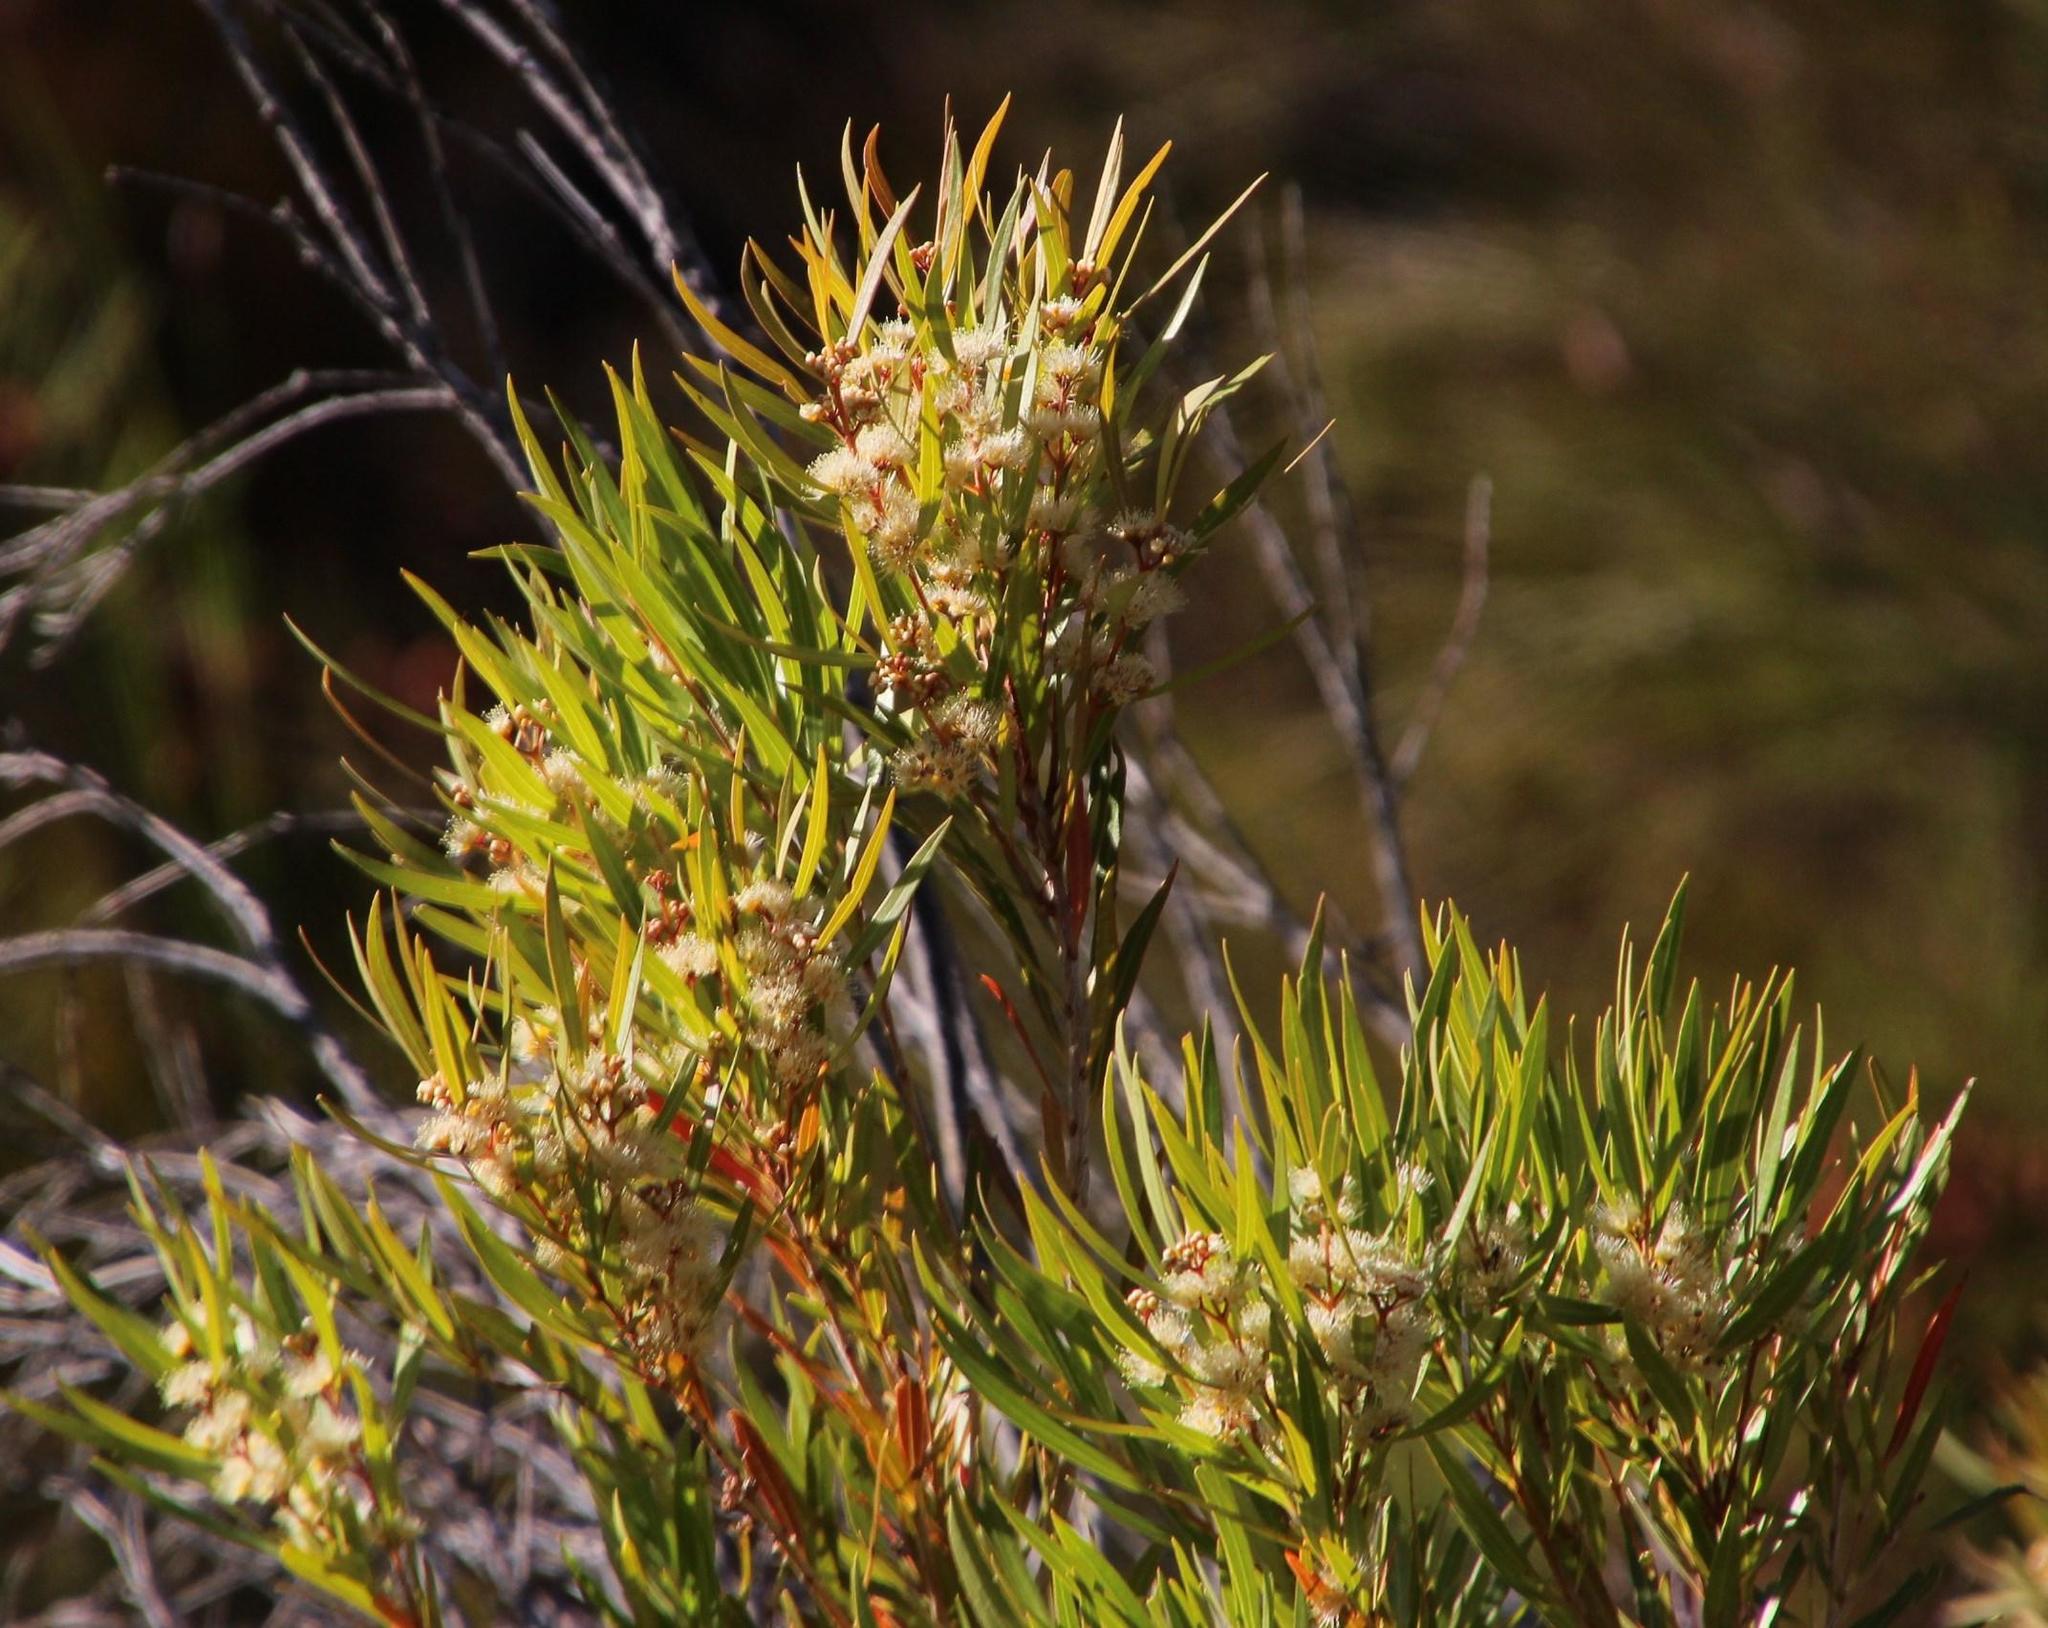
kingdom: Plantae
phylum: Tracheophyta
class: Magnoliopsida
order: Myrtales
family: Myrtaceae
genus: Callistemon
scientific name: Callistemon lanceolatus
